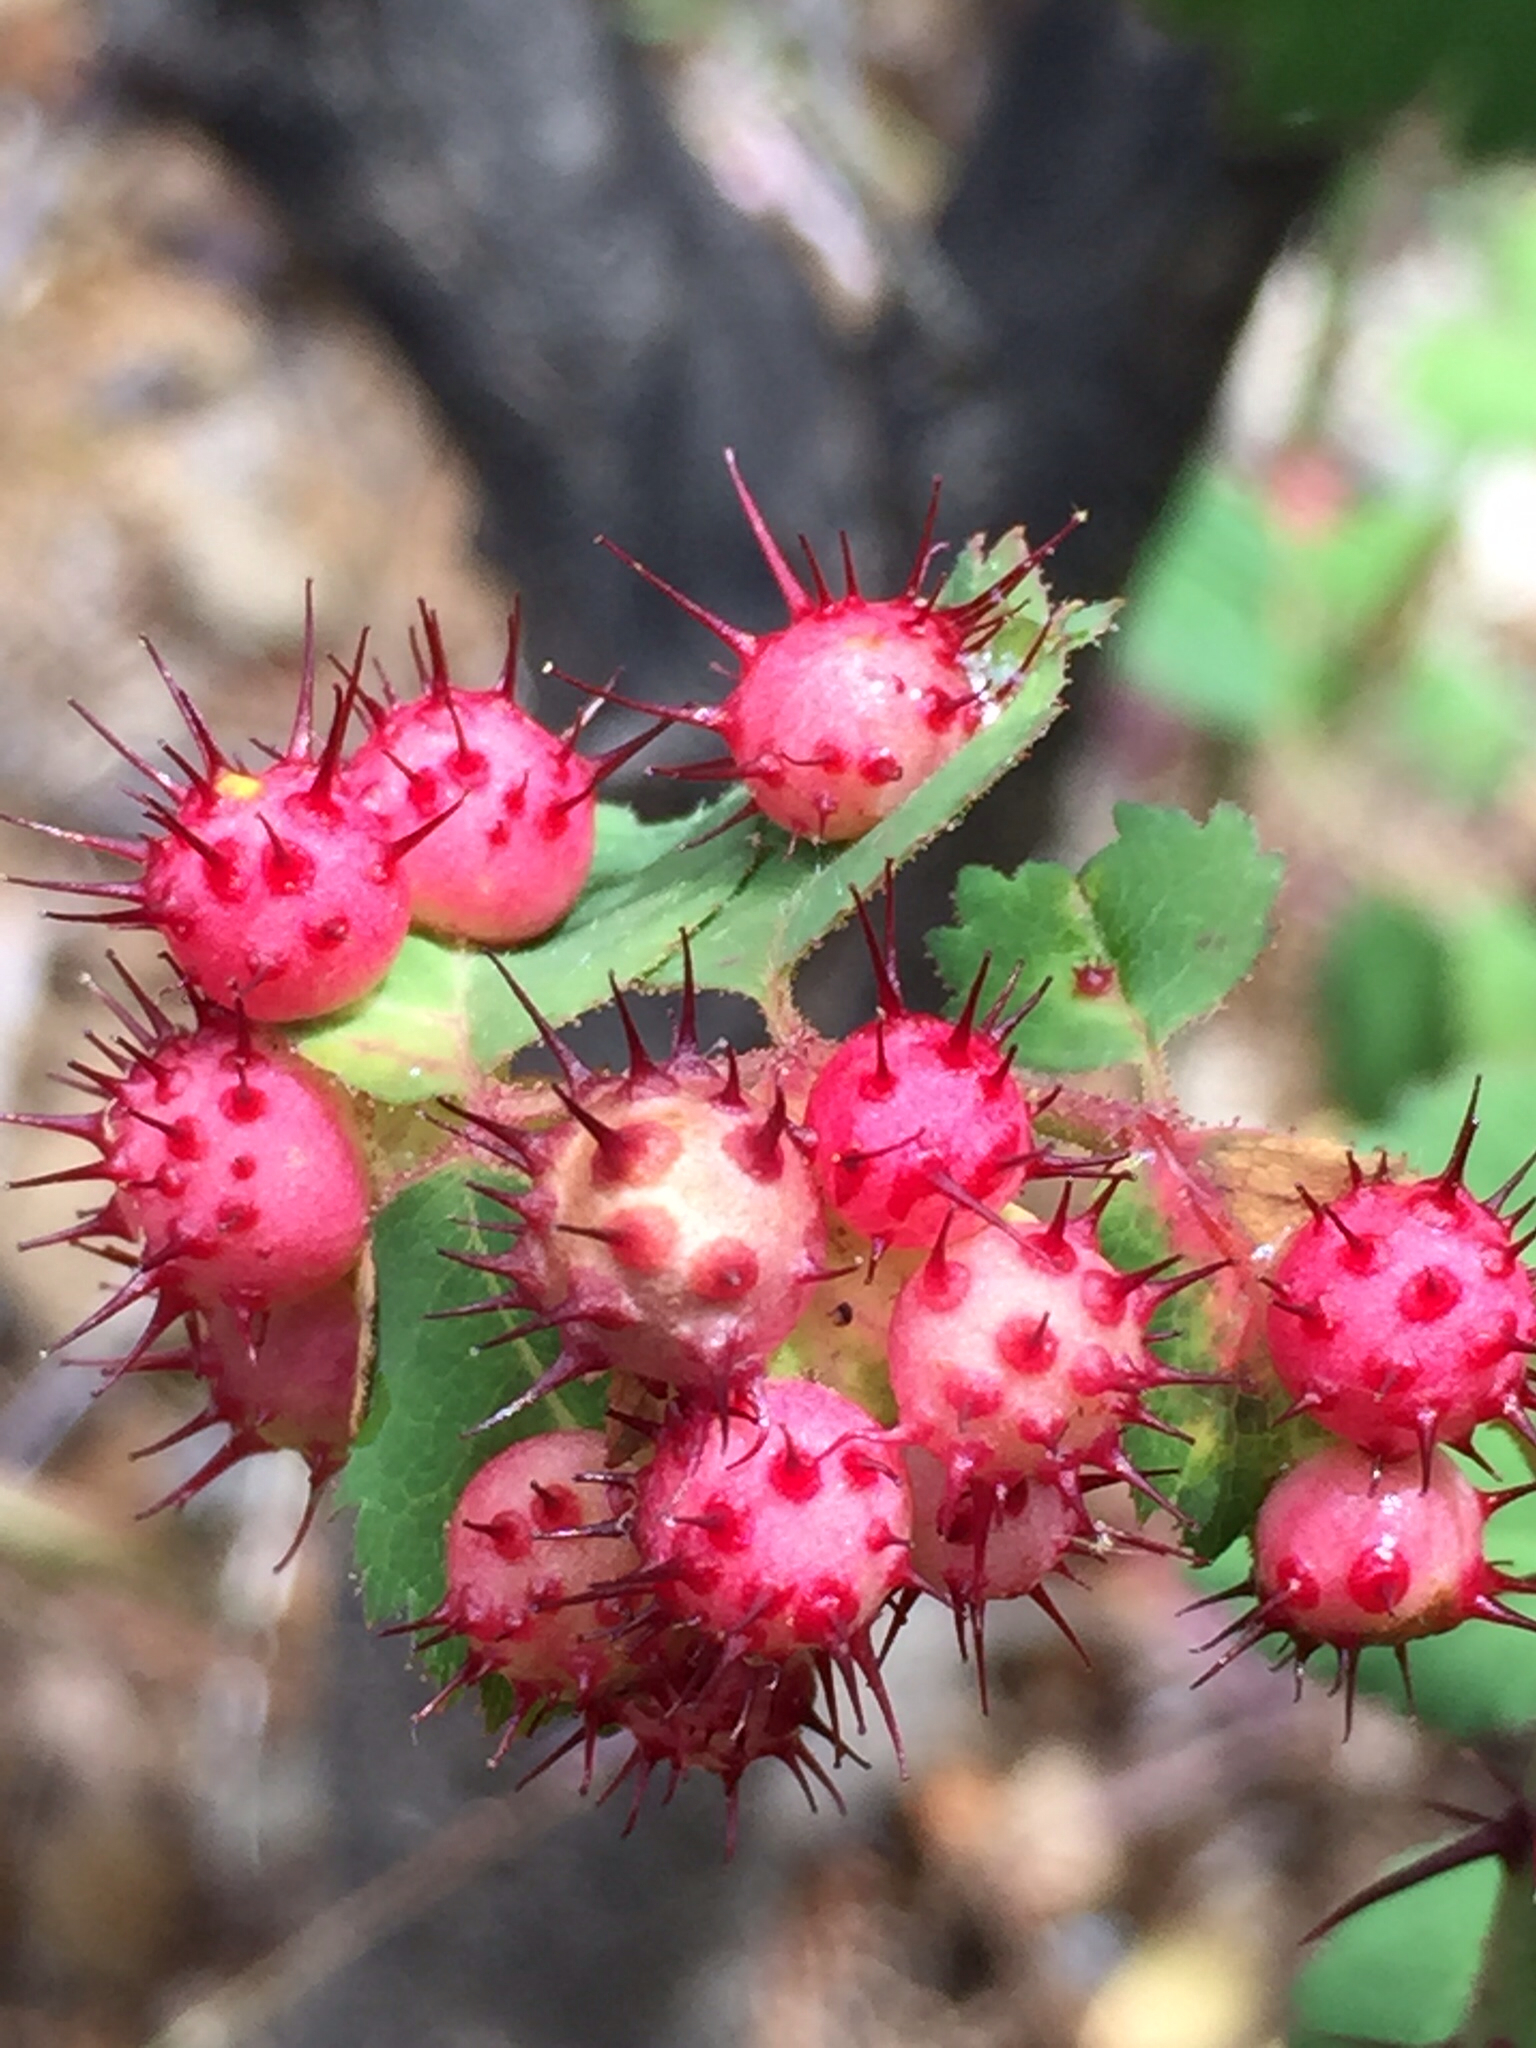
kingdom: Animalia
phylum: Arthropoda
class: Insecta
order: Hymenoptera
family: Cynipidae
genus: Diplolepis
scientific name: Diplolepis polita
